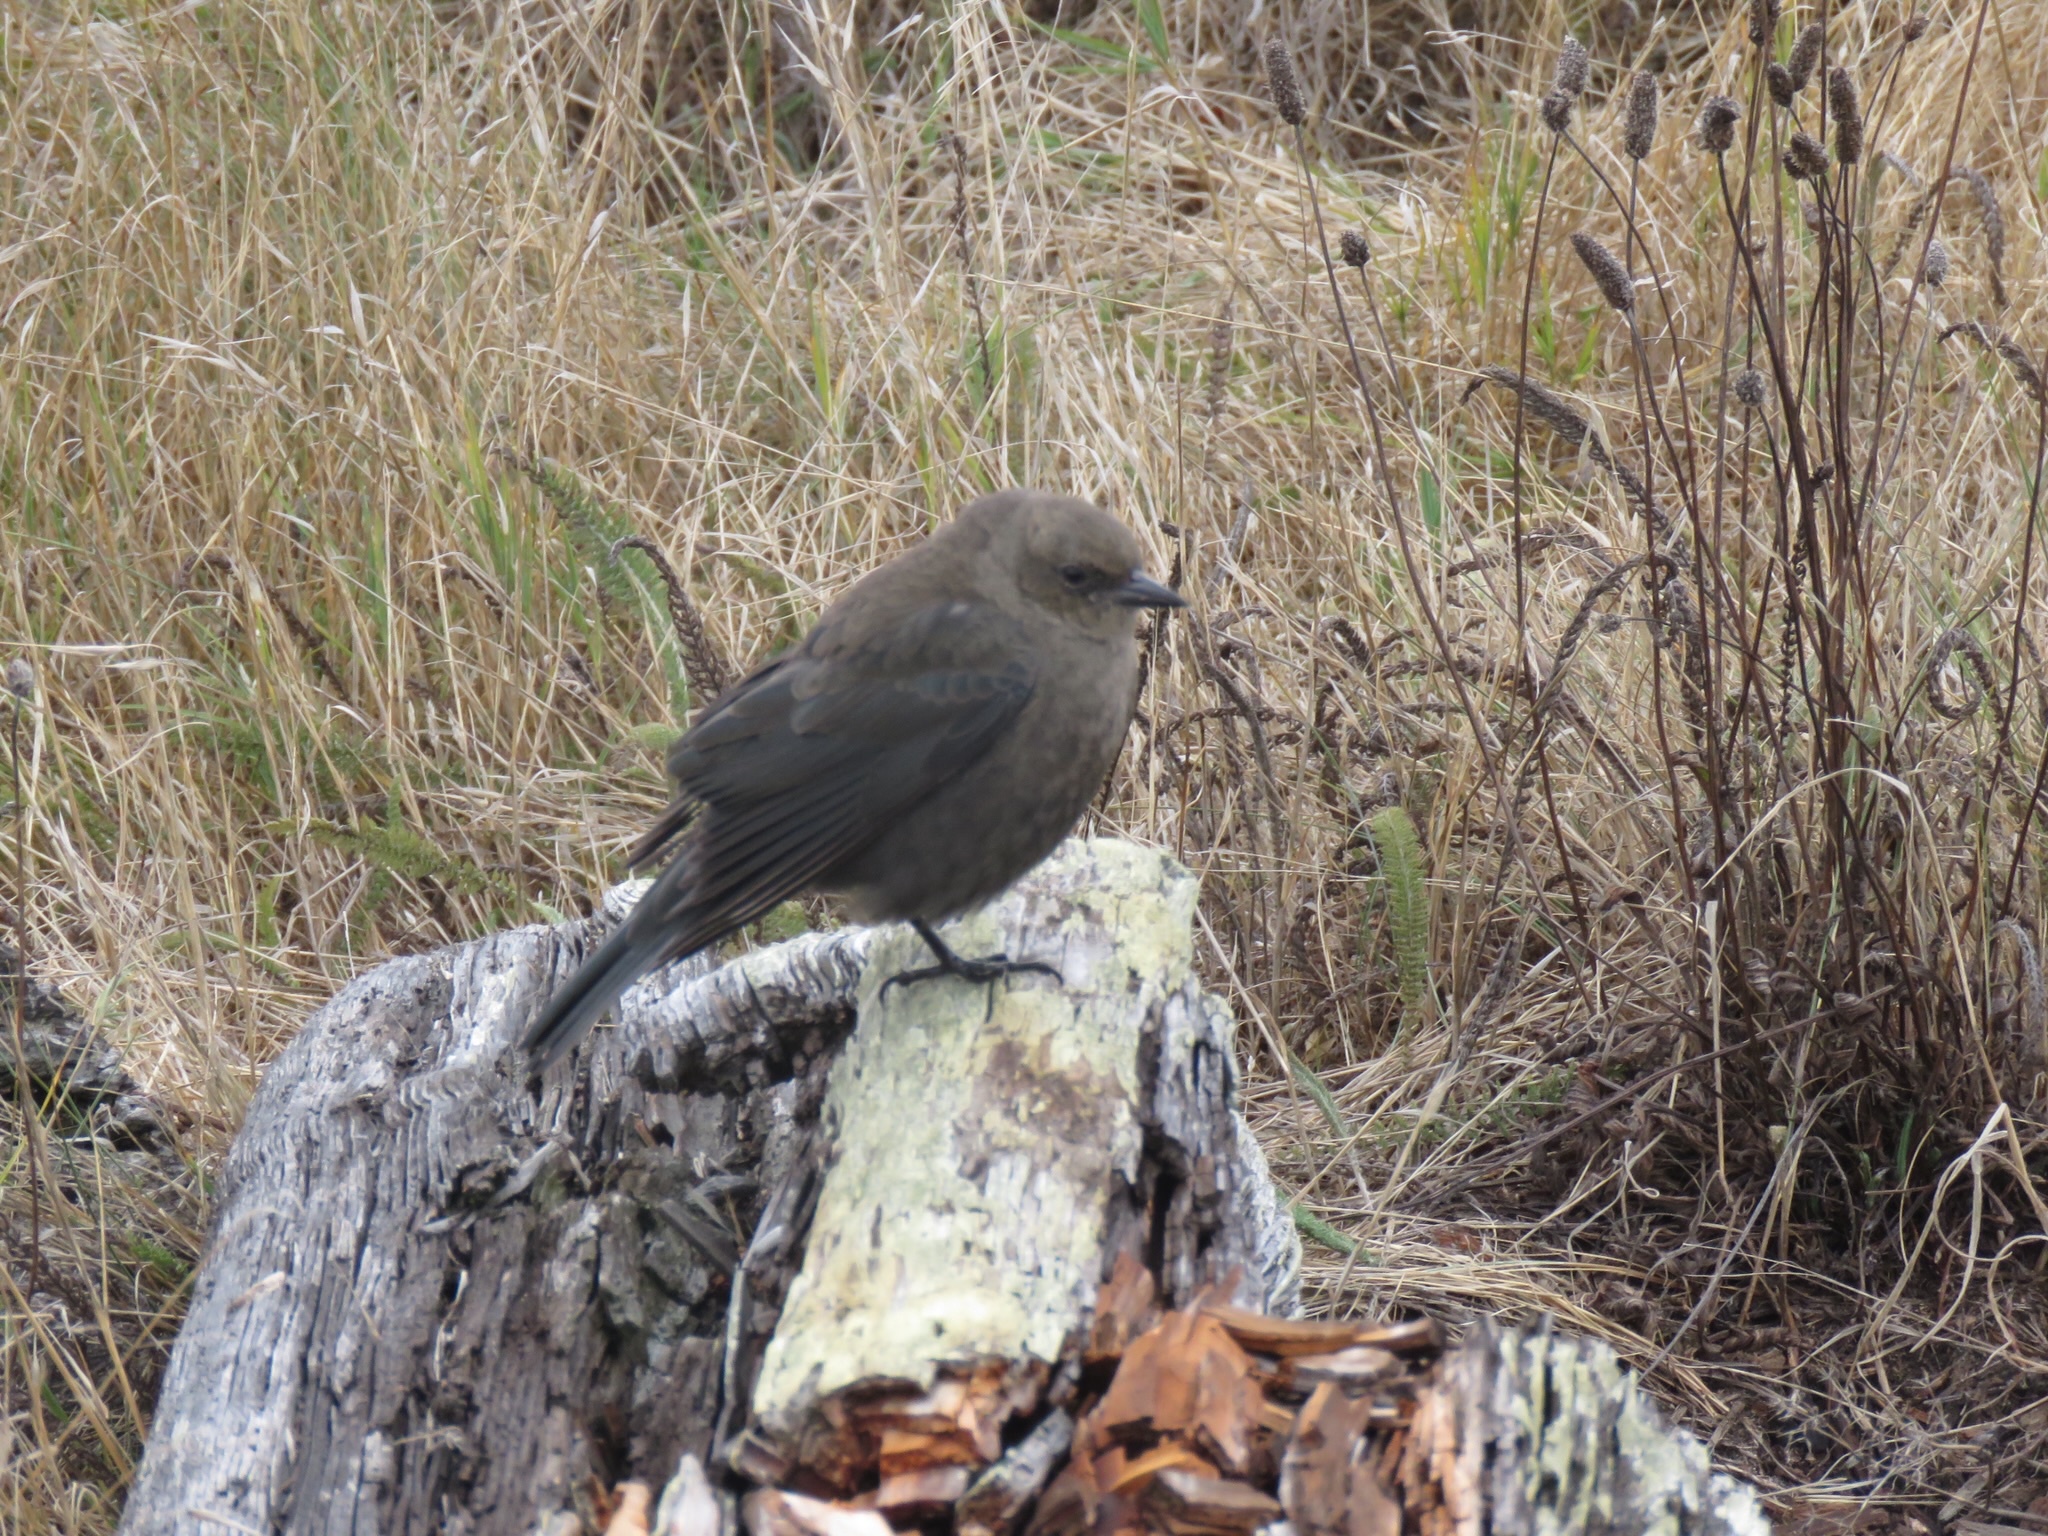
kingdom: Animalia
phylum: Chordata
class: Aves
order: Passeriformes
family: Icteridae
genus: Euphagus
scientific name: Euphagus cyanocephalus
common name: Brewer's blackbird
